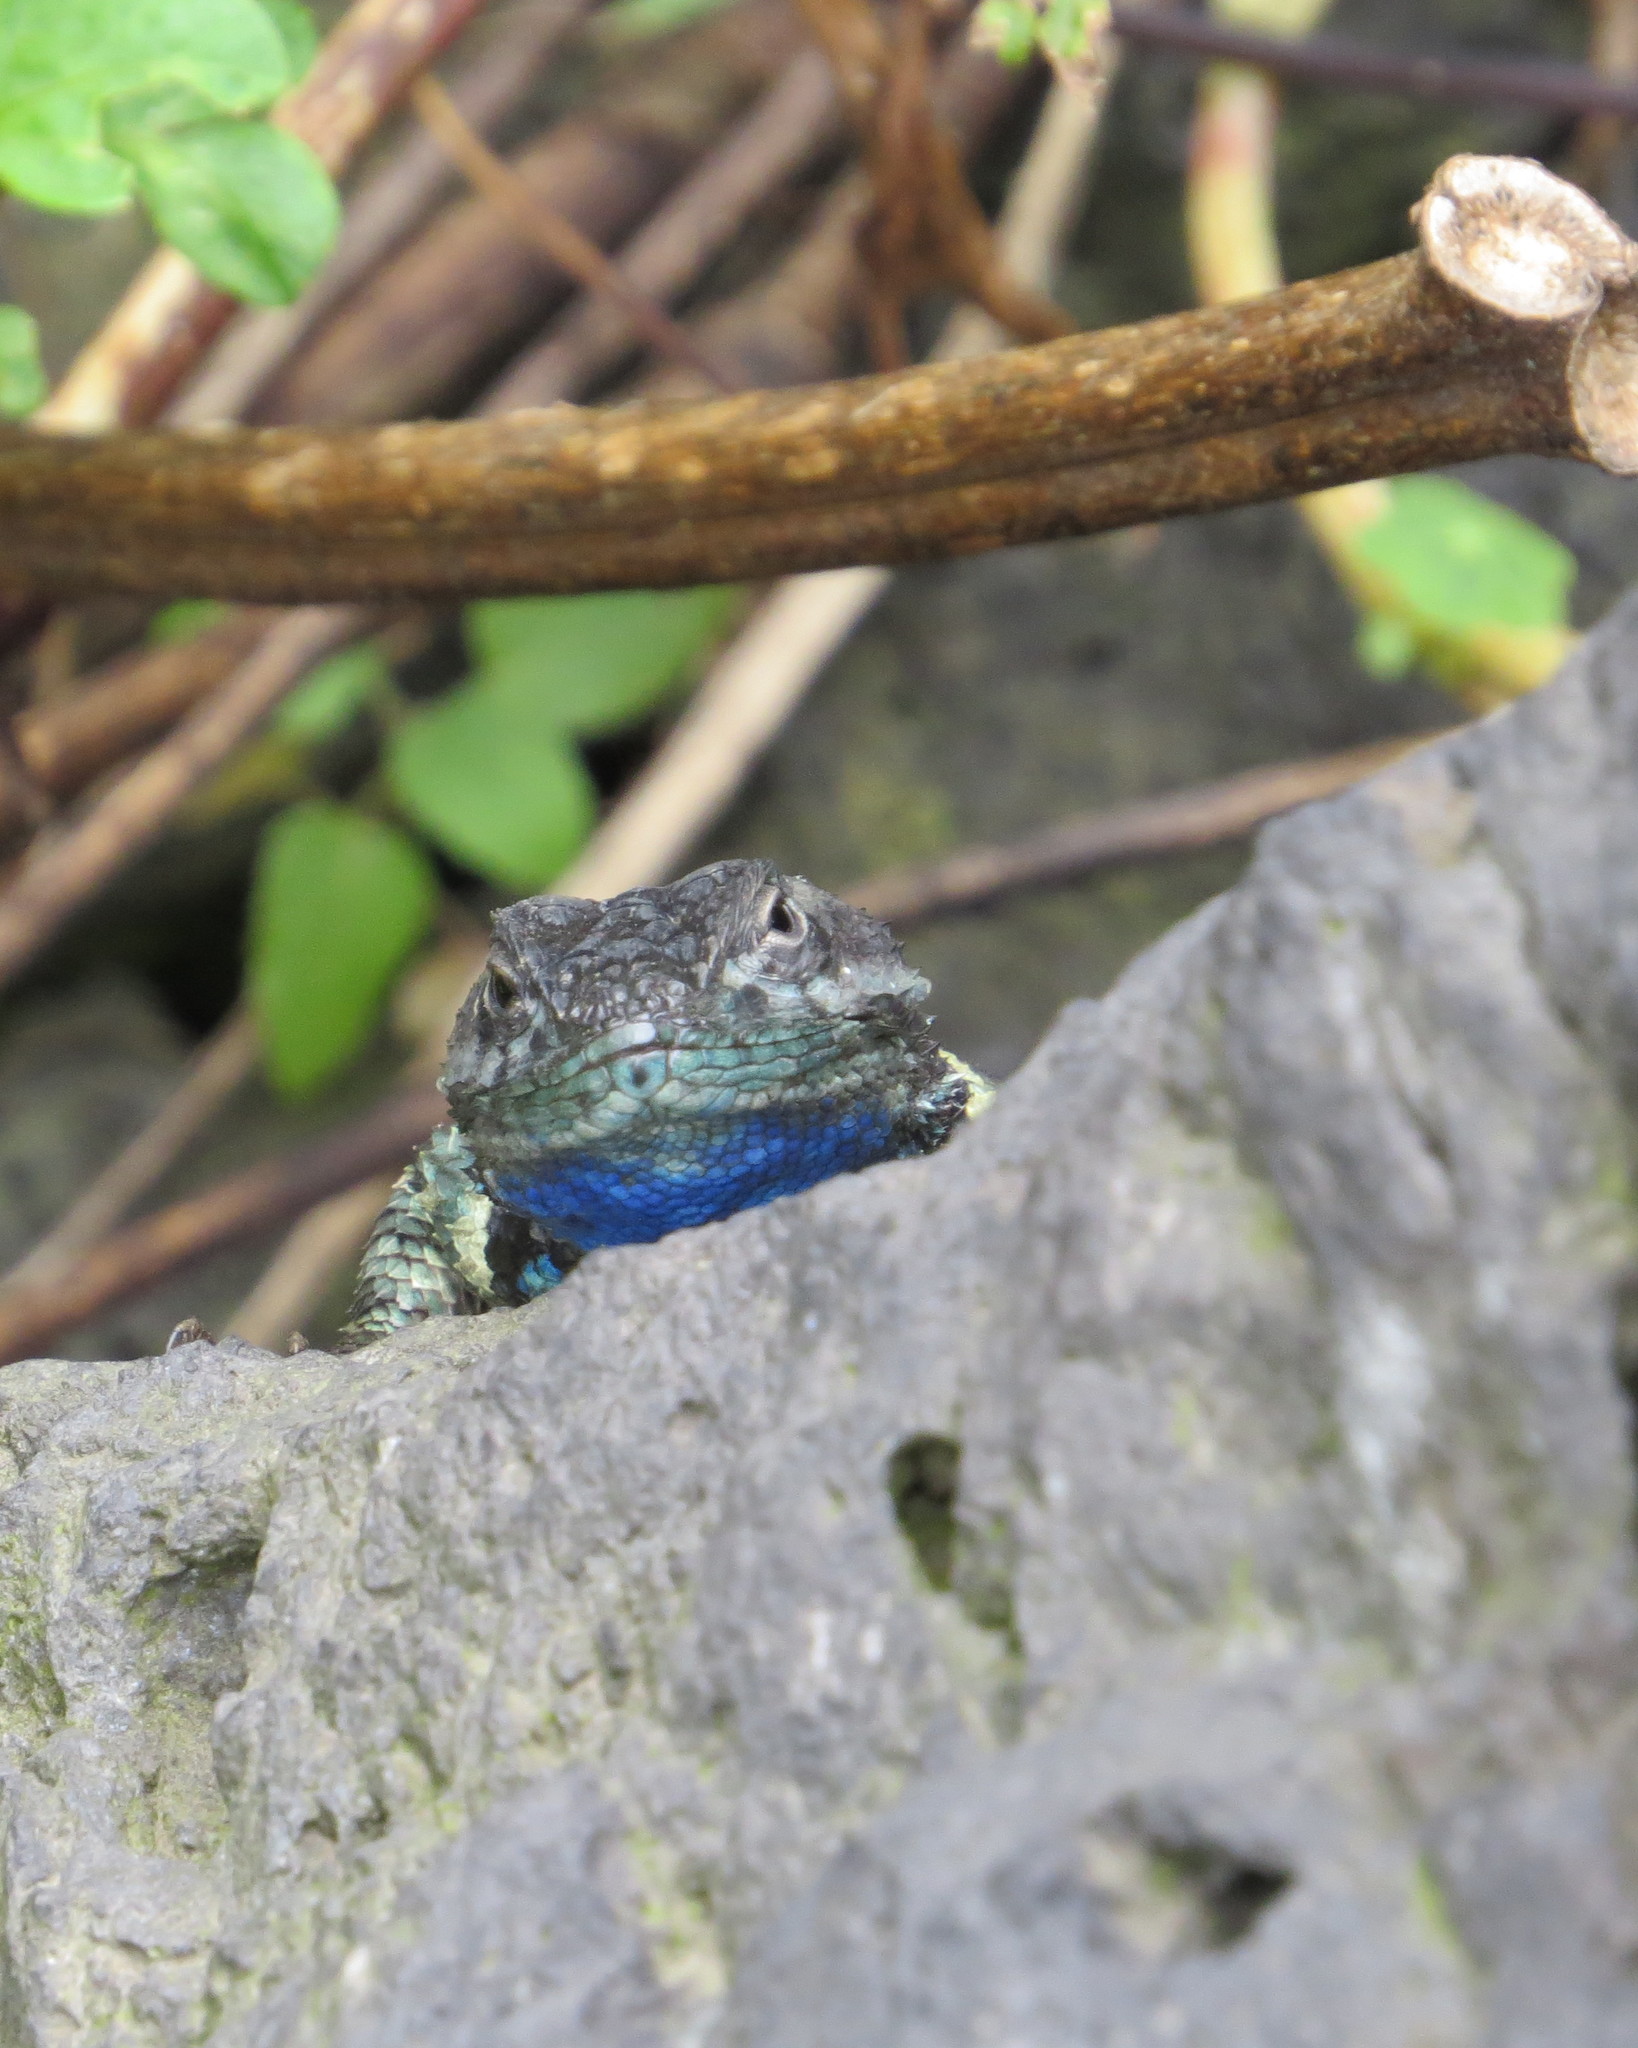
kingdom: Animalia
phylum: Chordata
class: Squamata
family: Phrynosomatidae
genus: Sceloporus
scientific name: Sceloporus torquatus
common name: Central plateau torquate lizard [melanogaster]
